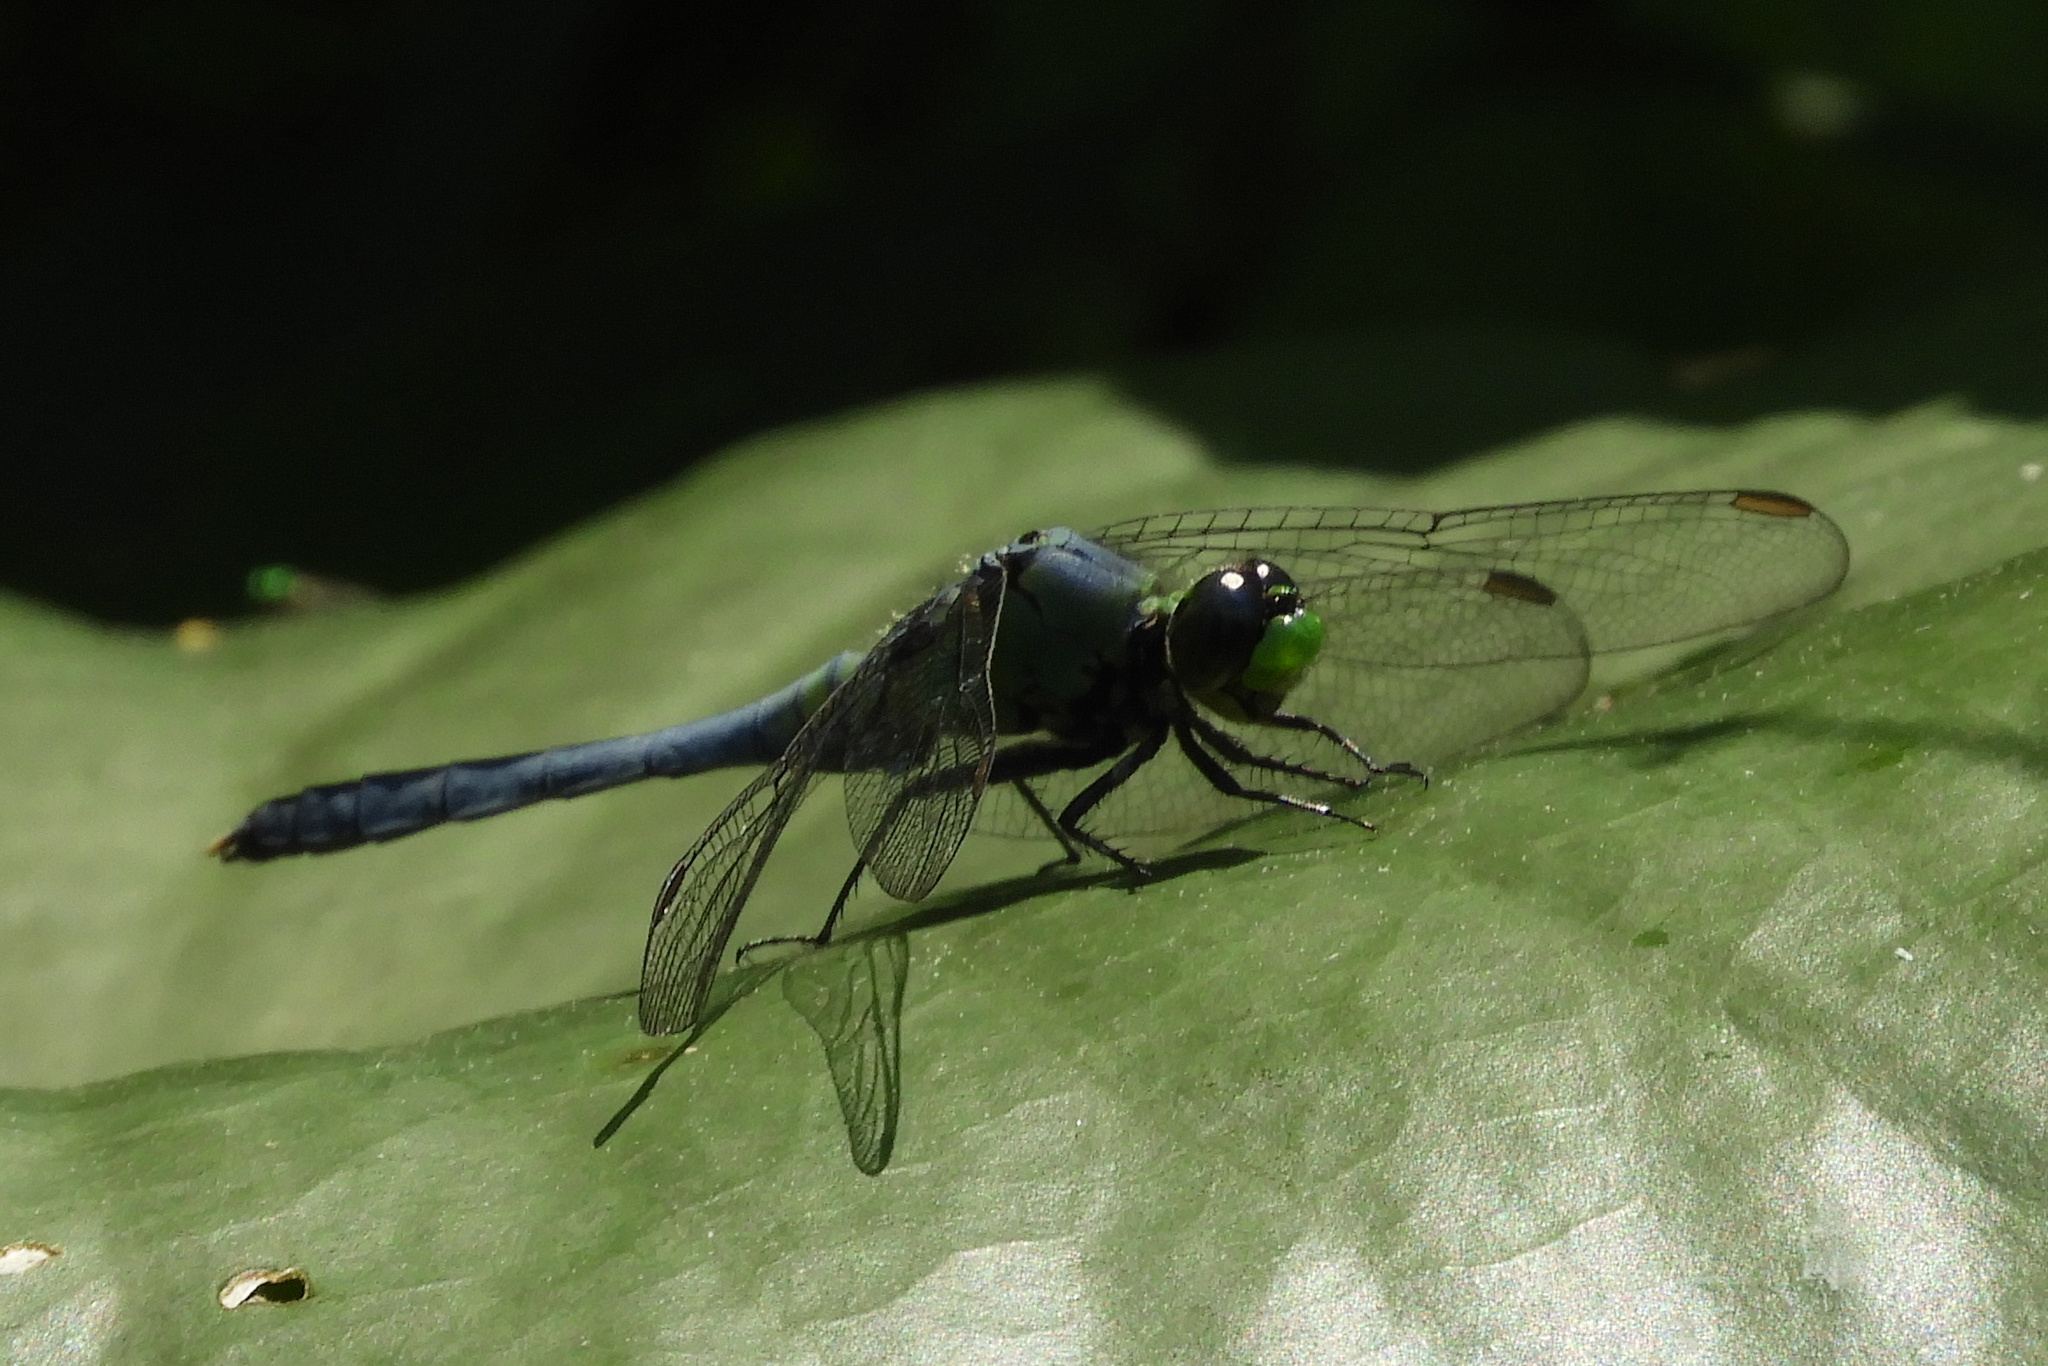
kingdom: Animalia
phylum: Arthropoda
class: Insecta
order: Odonata
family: Libellulidae
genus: Erythemis
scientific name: Erythemis simplicicollis
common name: Eastern pondhawk
